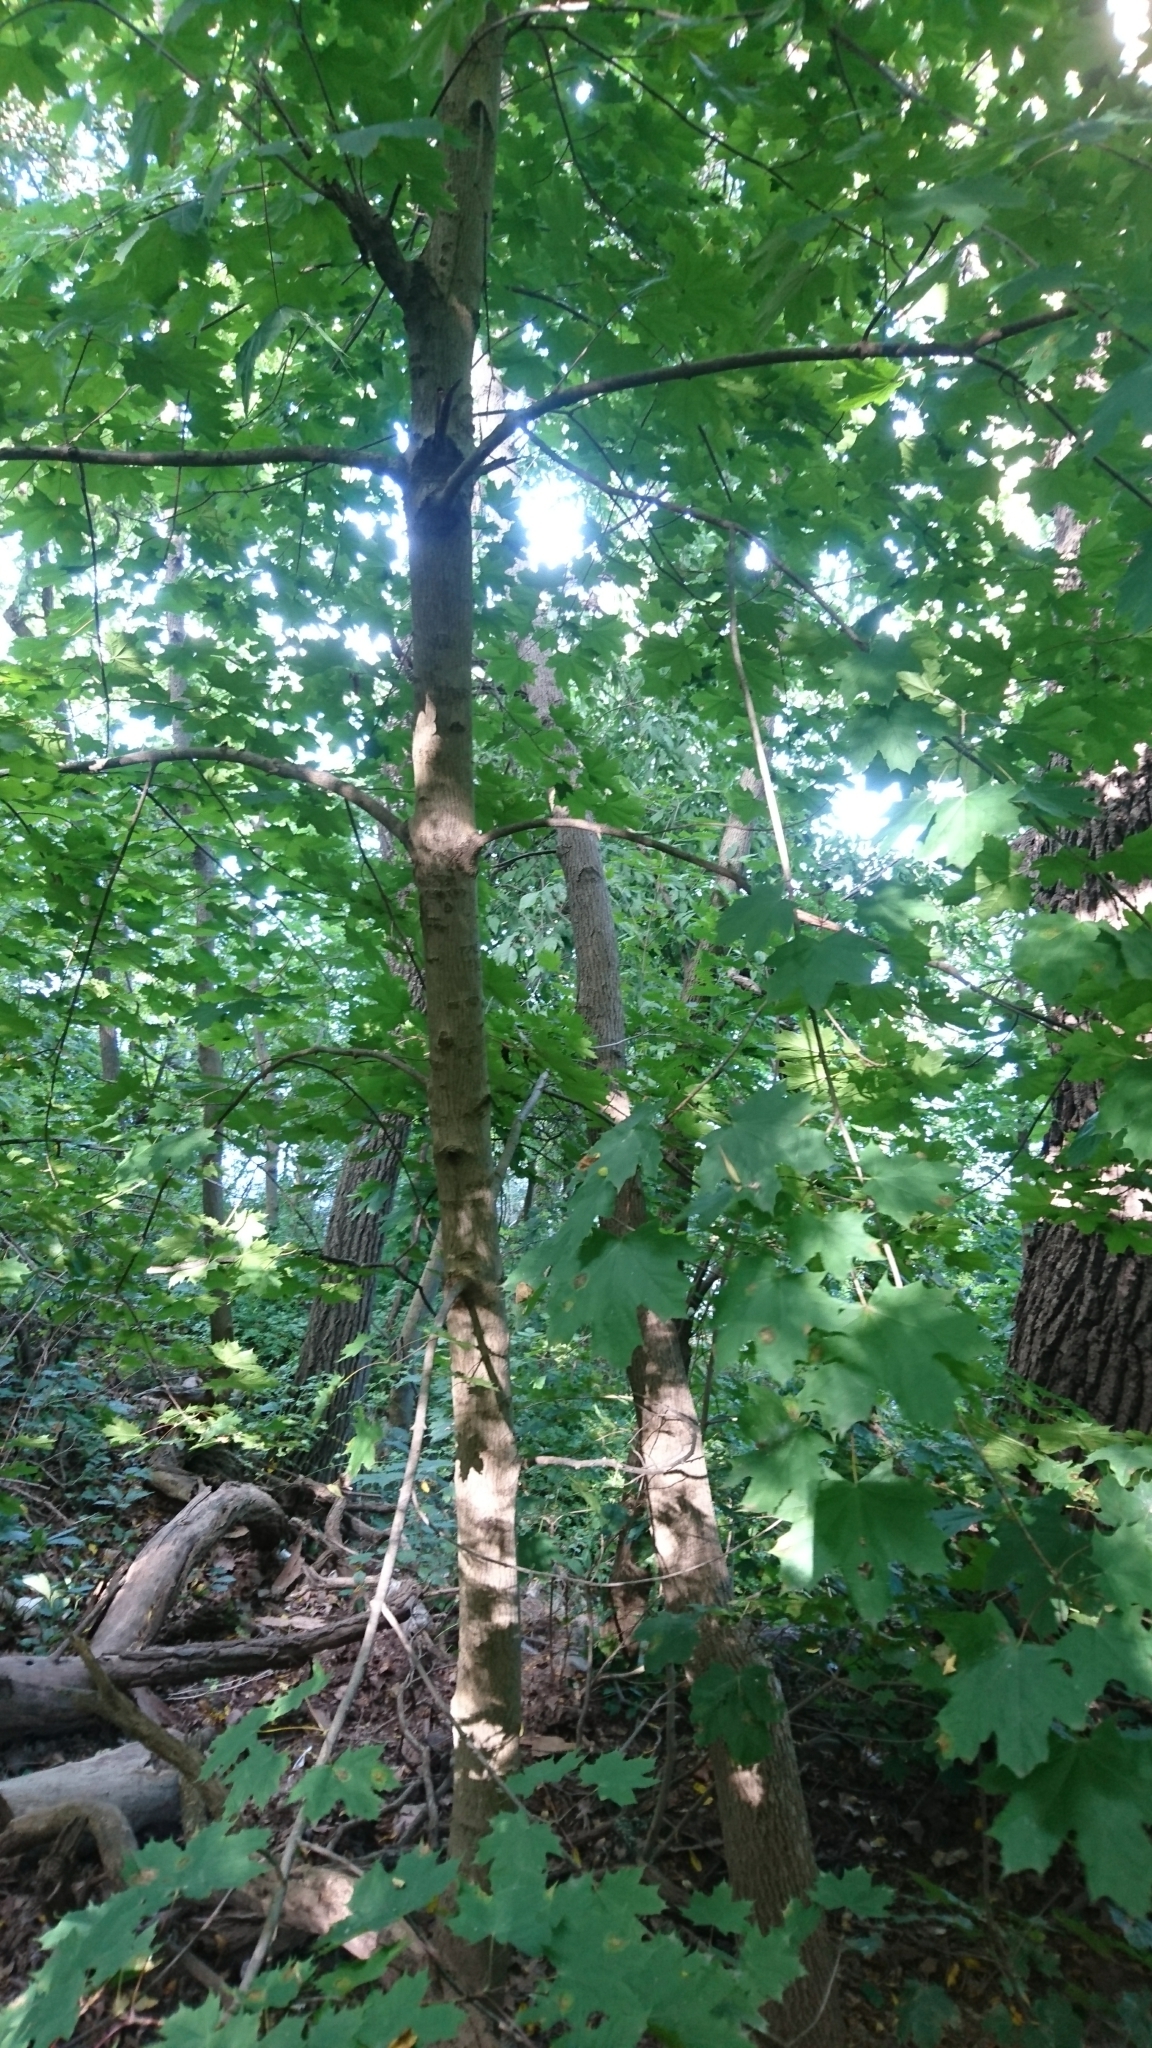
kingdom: Plantae
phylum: Tracheophyta
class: Magnoliopsida
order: Sapindales
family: Sapindaceae
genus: Acer
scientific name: Acer platanoides
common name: Norway maple
